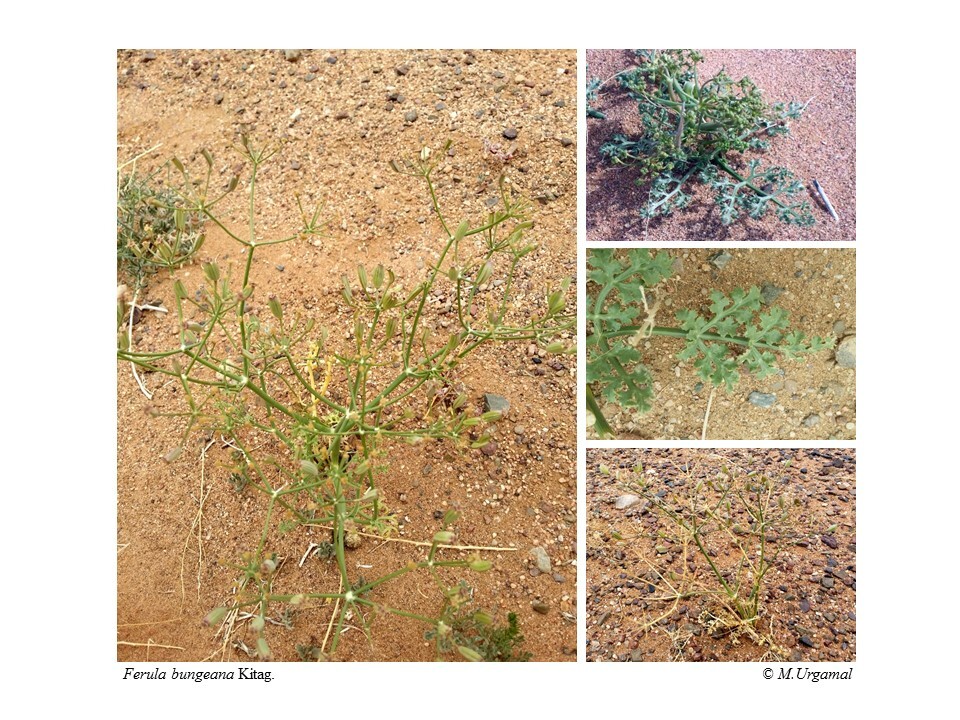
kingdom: Plantae
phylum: Tracheophyta
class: Magnoliopsida
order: Apiales
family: Apiaceae
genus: Ferula
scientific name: Ferula bungeana
